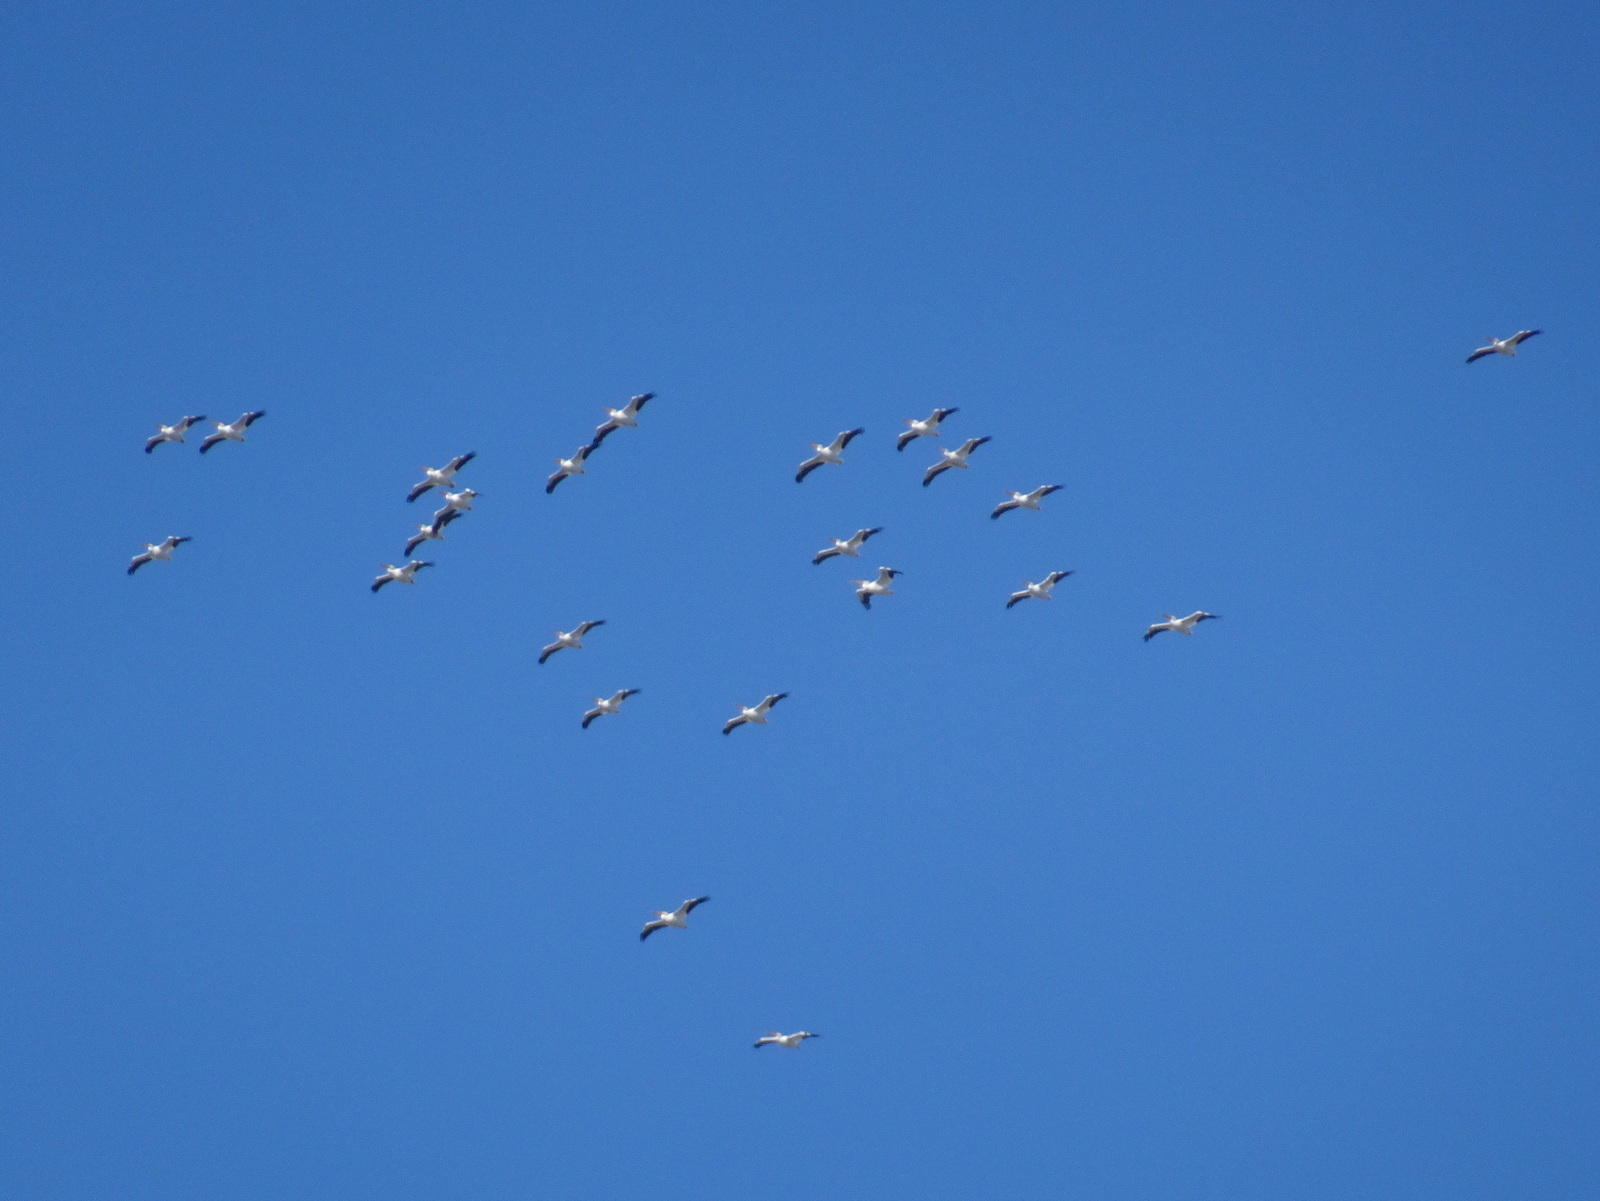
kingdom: Animalia
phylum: Chordata
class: Aves
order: Pelecaniformes
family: Pelecanidae
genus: Pelecanus
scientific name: Pelecanus erythrorhynchos
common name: American white pelican
